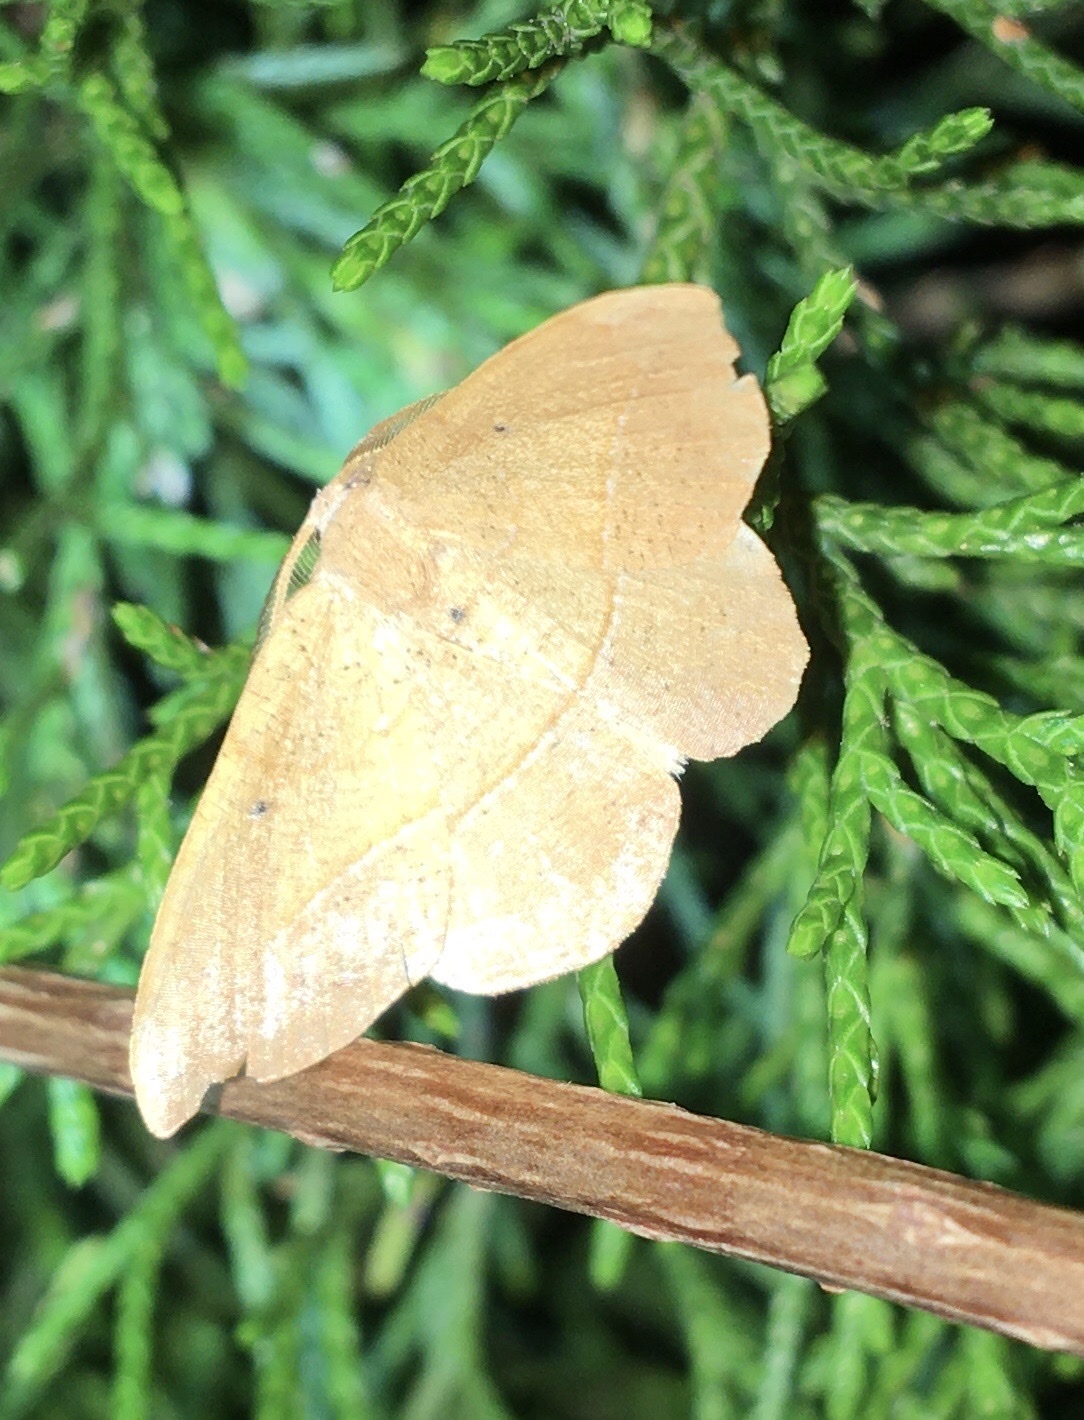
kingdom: Animalia
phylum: Arthropoda
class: Insecta
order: Lepidoptera
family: Geometridae
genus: Patalene
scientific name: Patalene olyzonaria
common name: Juniper geometer moth
